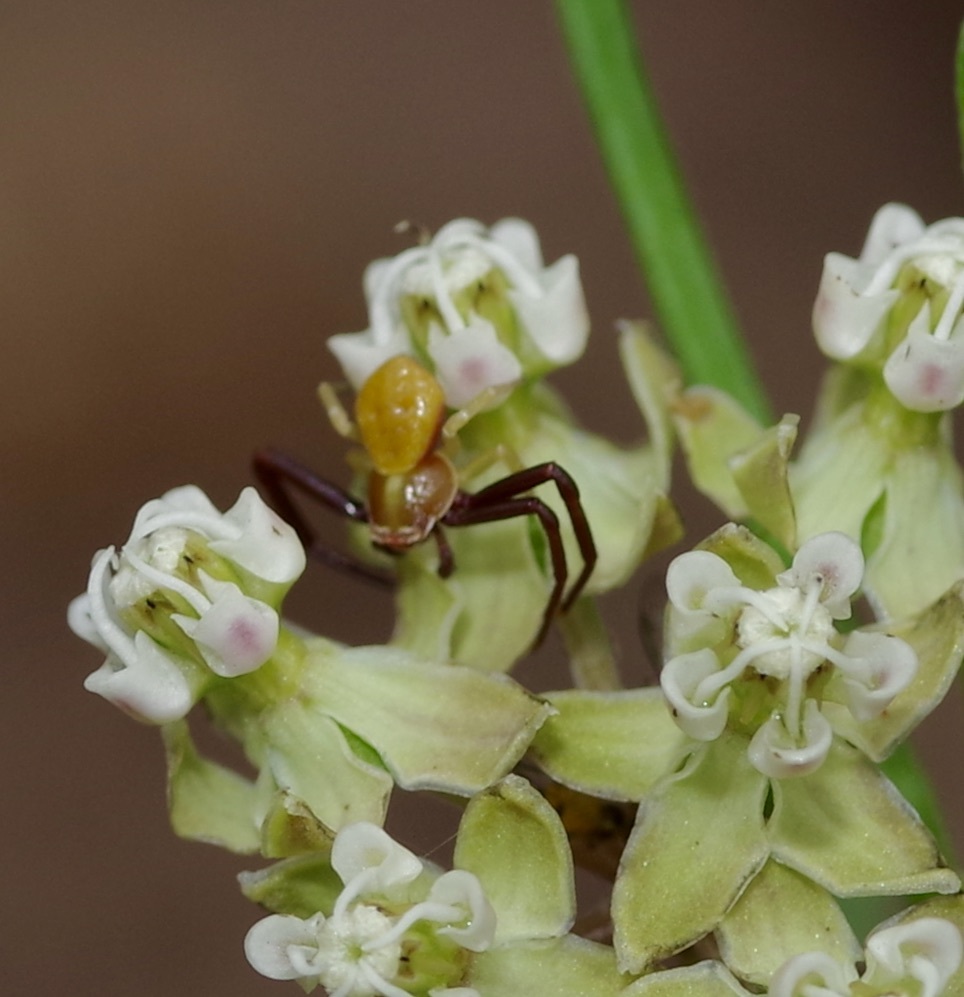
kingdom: Animalia
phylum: Arthropoda
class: Arachnida
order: Araneae
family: Thomisidae
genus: Misumenoides
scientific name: Misumenoides formosipes
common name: White-banded crab spider
